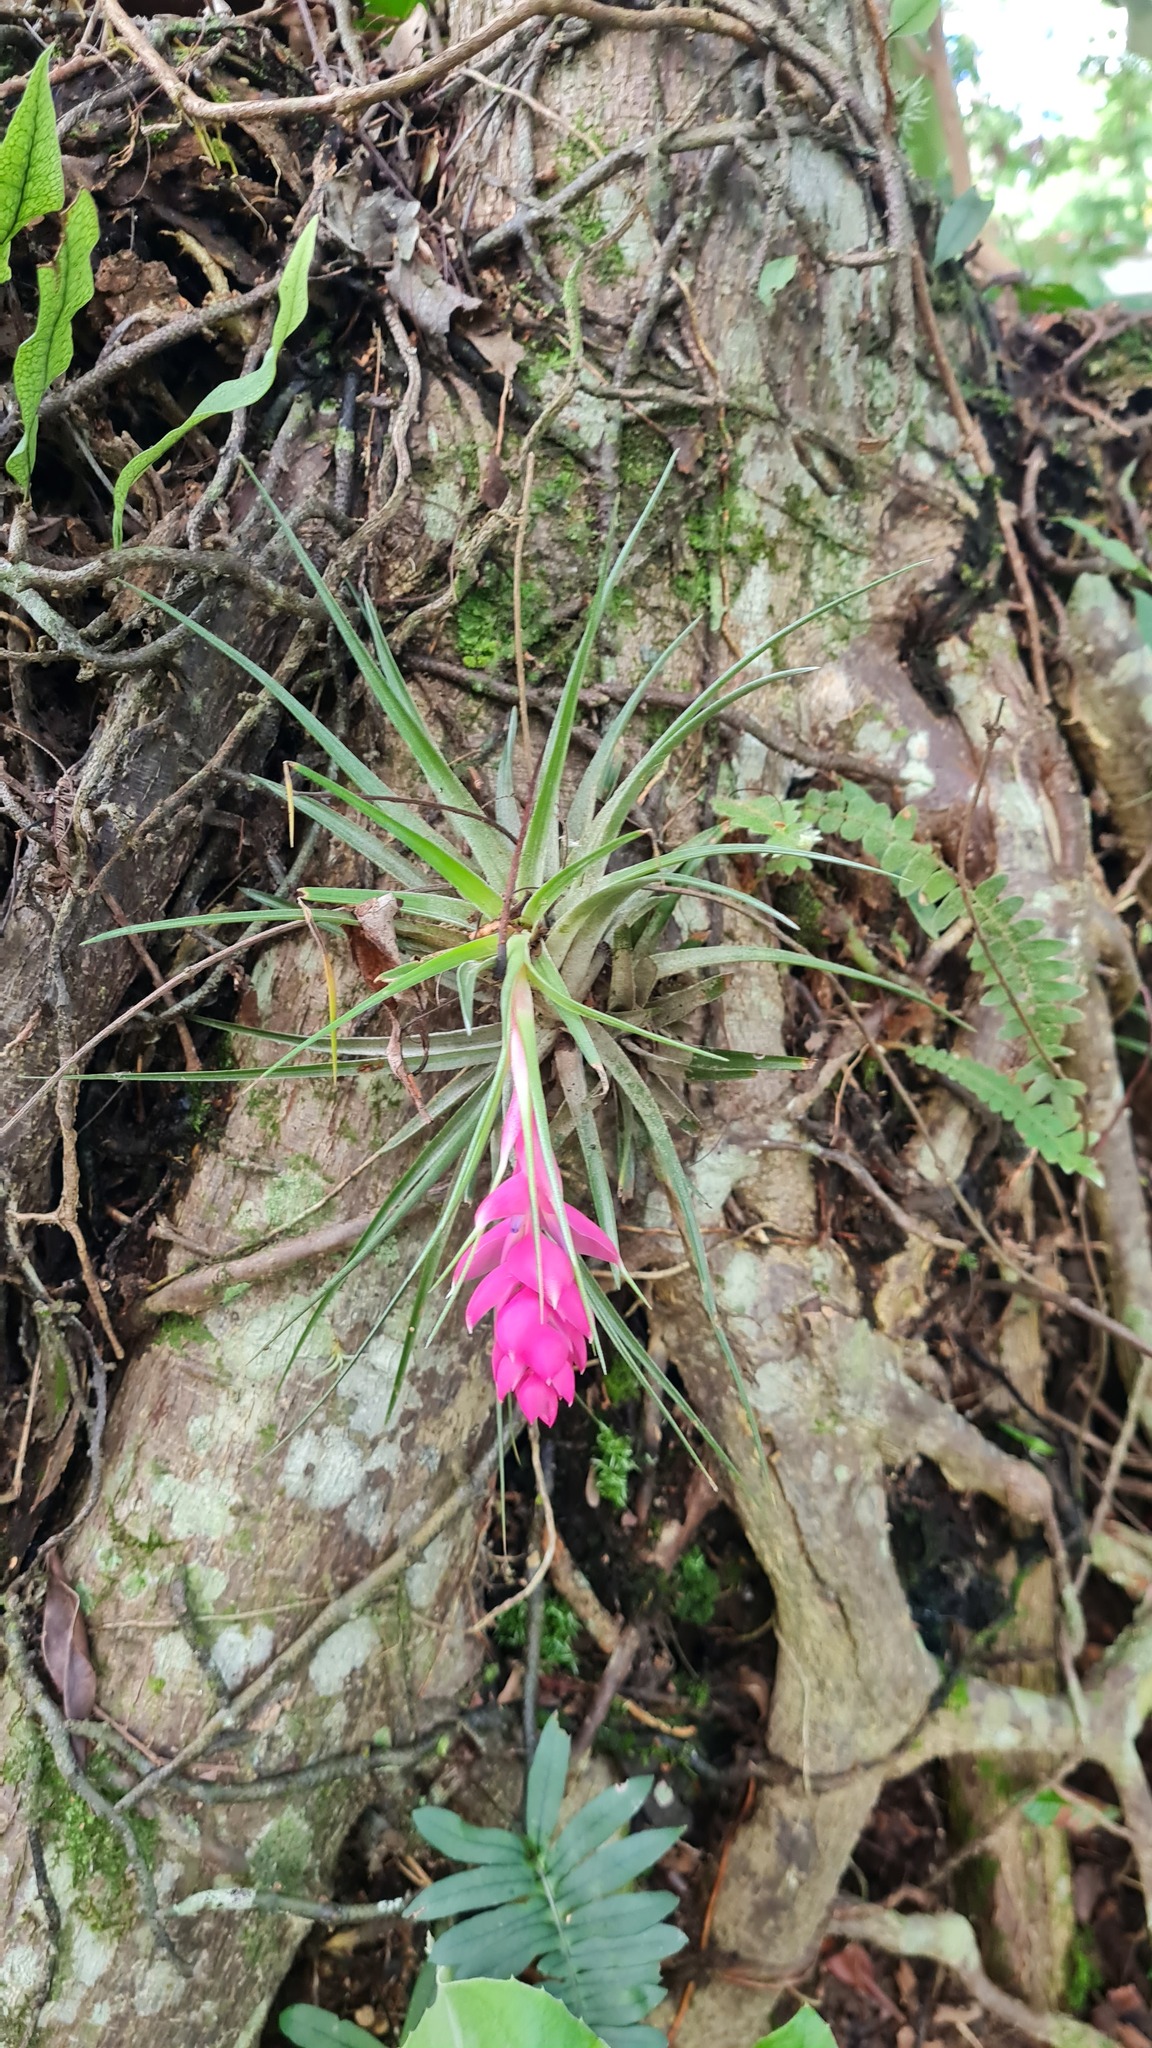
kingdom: Plantae
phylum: Tracheophyta
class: Liliopsida
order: Poales
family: Bromeliaceae
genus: Tillandsia
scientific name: Tillandsia stricta
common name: Airplant
